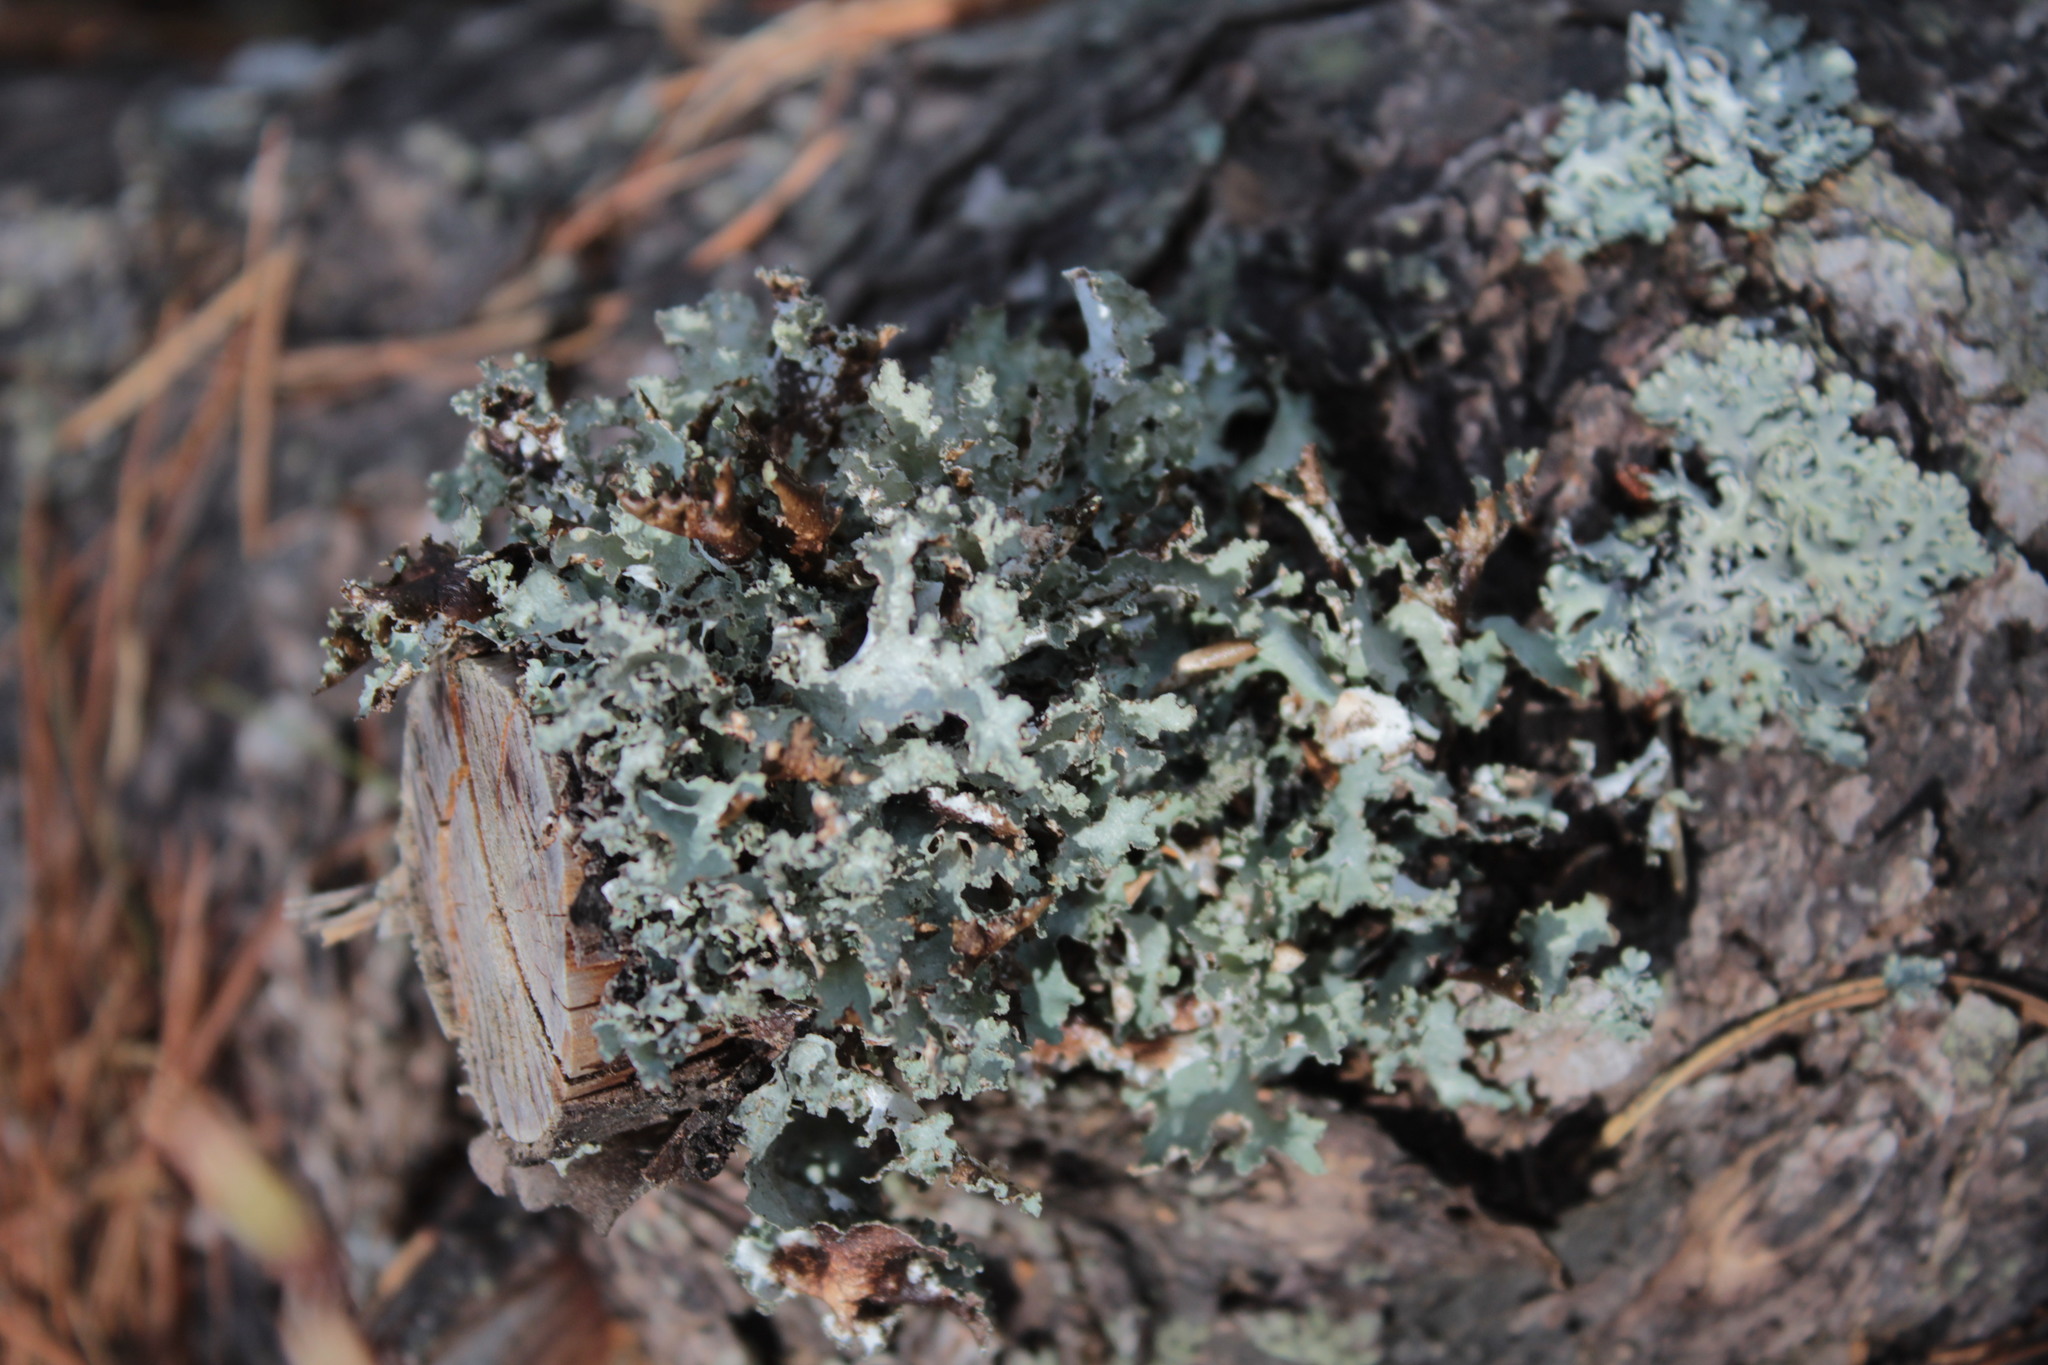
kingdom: Fungi
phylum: Ascomycota
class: Lecanoromycetes
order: Lecanorales
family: Parmeliaceae
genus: Platismatia
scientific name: Platismatia glauca
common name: Varied rag lichen
